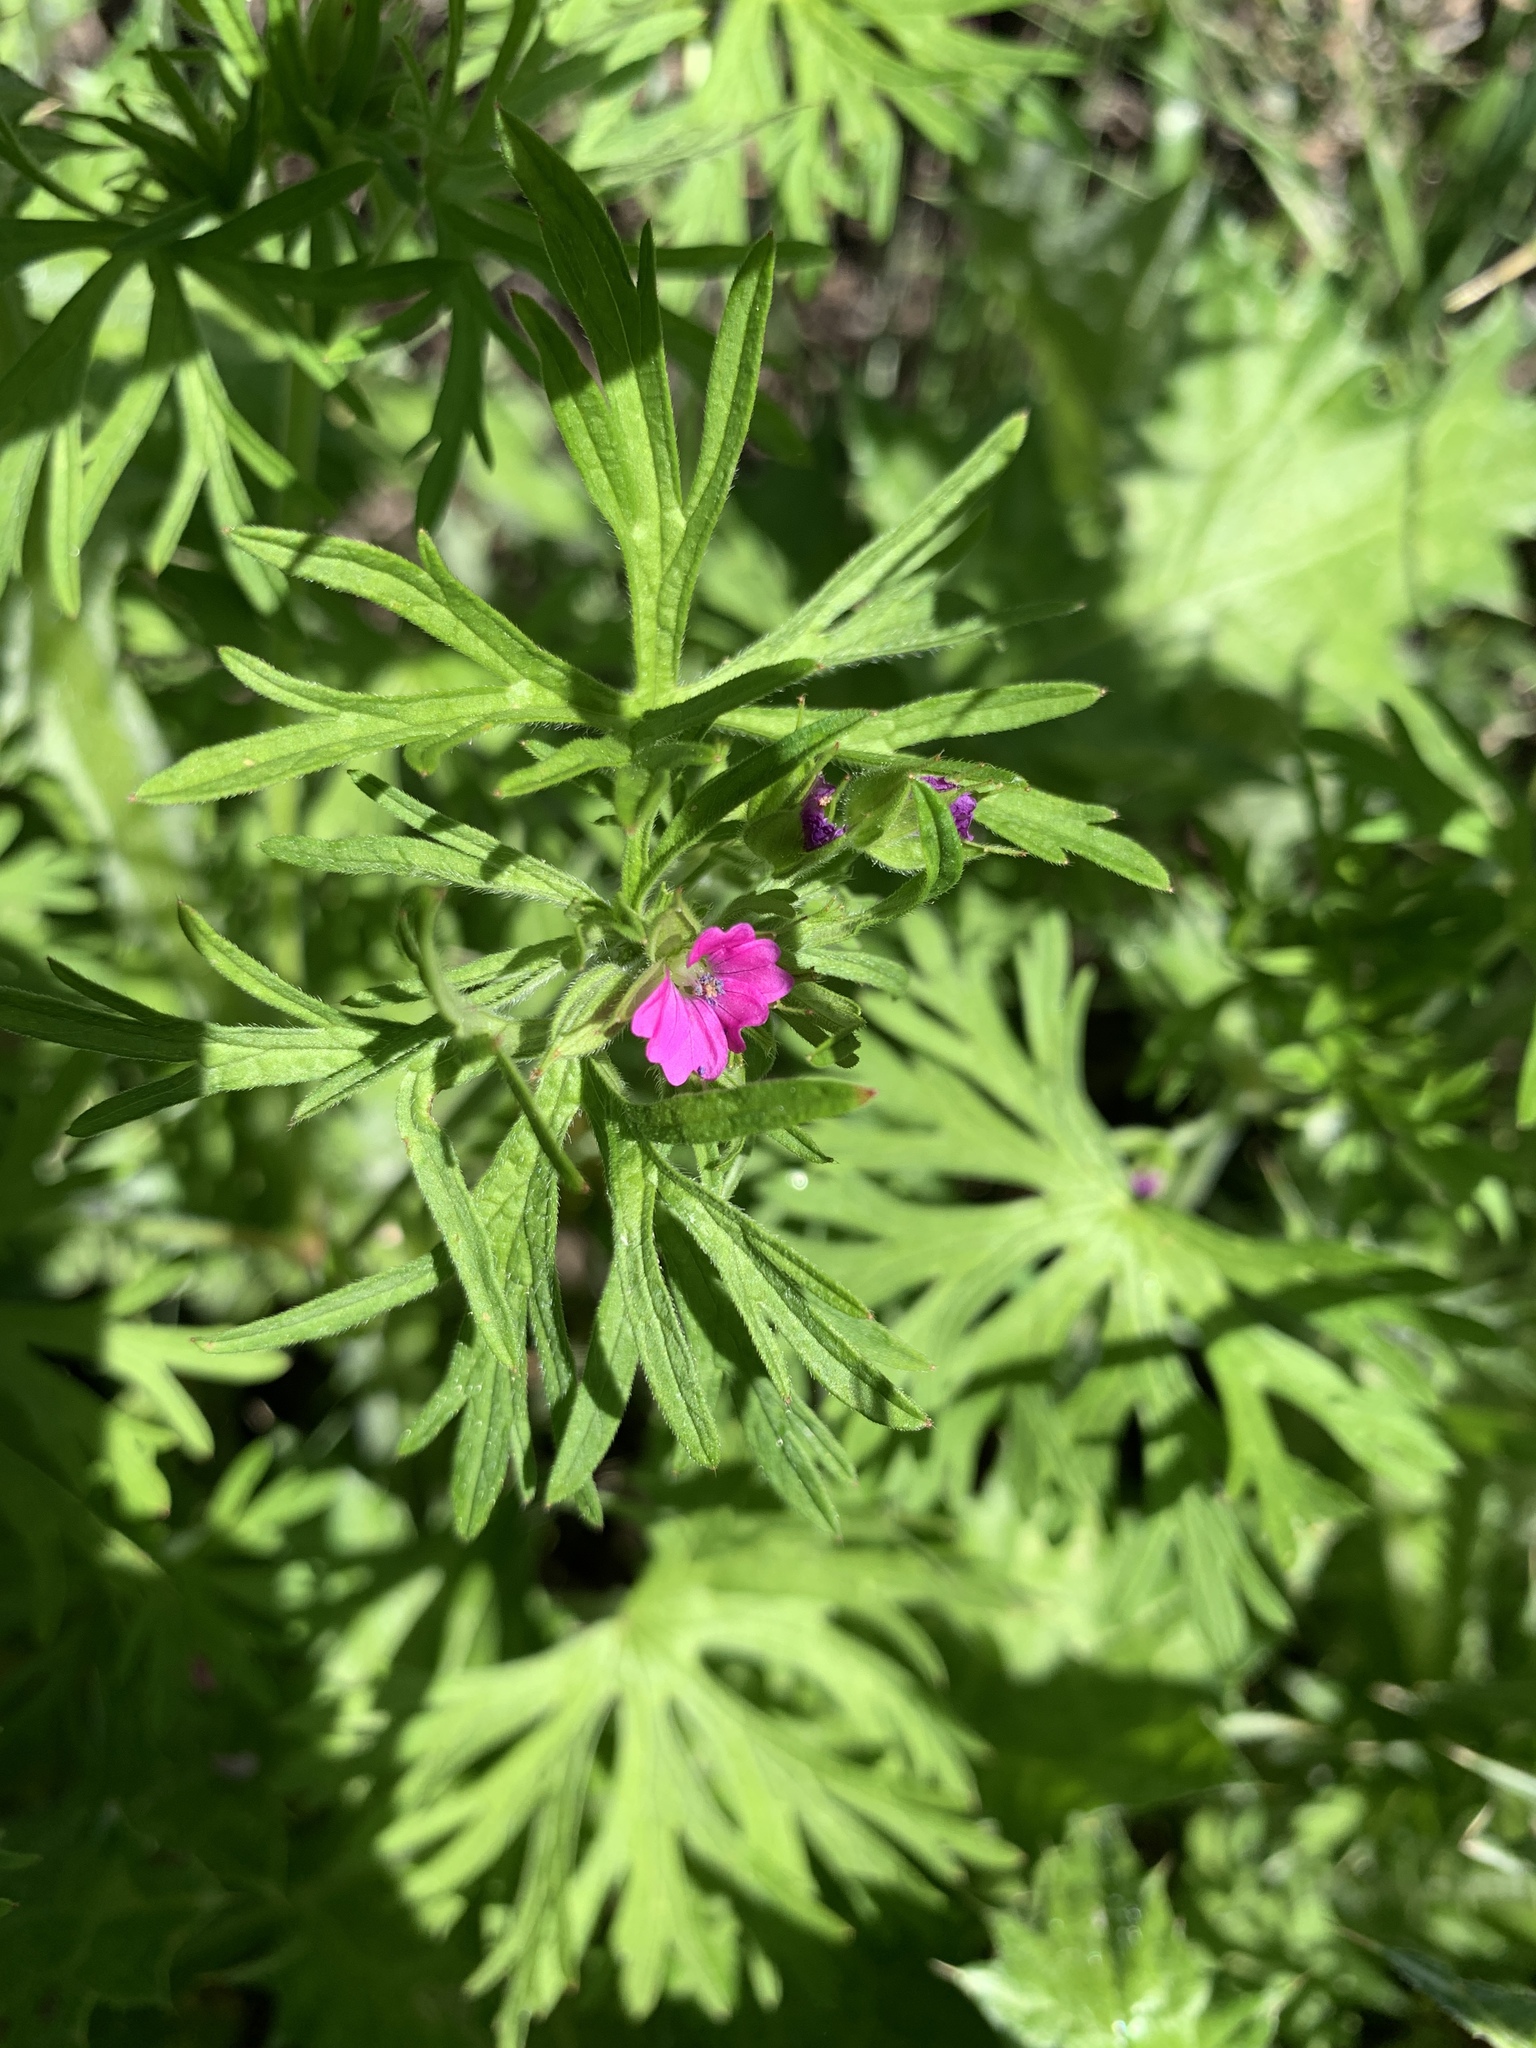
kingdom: Plantae
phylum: Tracheophyta
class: Magnoliopsida
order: Geraniales
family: Geraniaceae
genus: Geranium
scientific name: Geranium dissectum
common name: Cut-leaved crane's-bill
